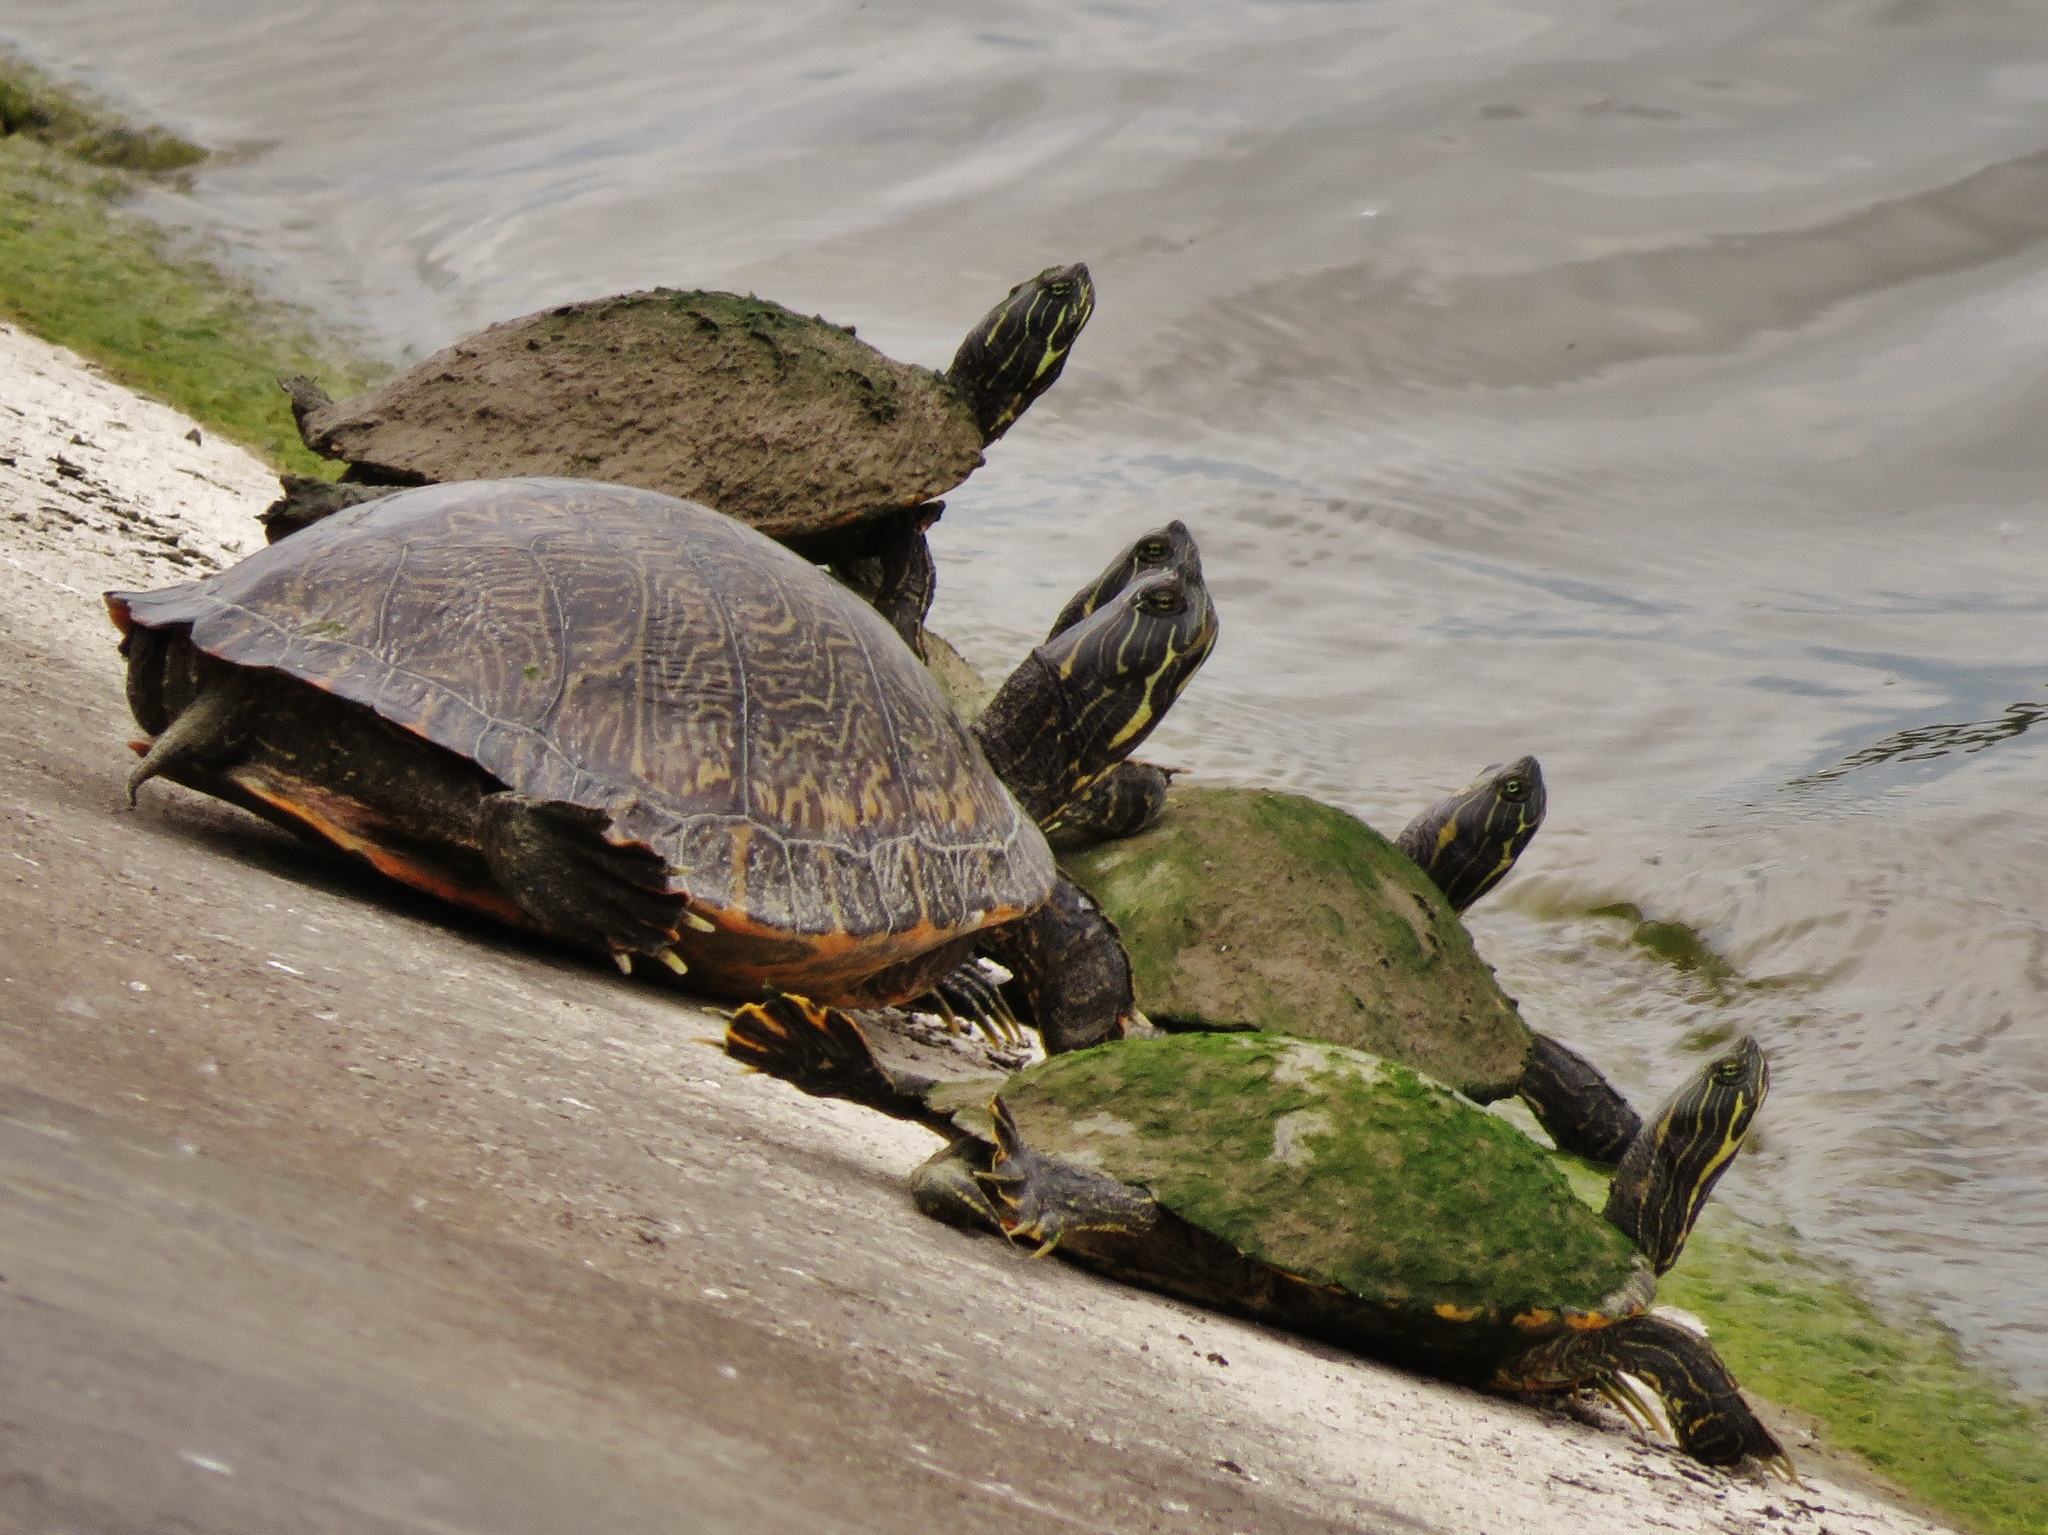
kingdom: Animalia
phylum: Chordata
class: Testudines
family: Emydidae
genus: Pseudemys
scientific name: Pseudemys concinna
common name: Eastern river cooter
